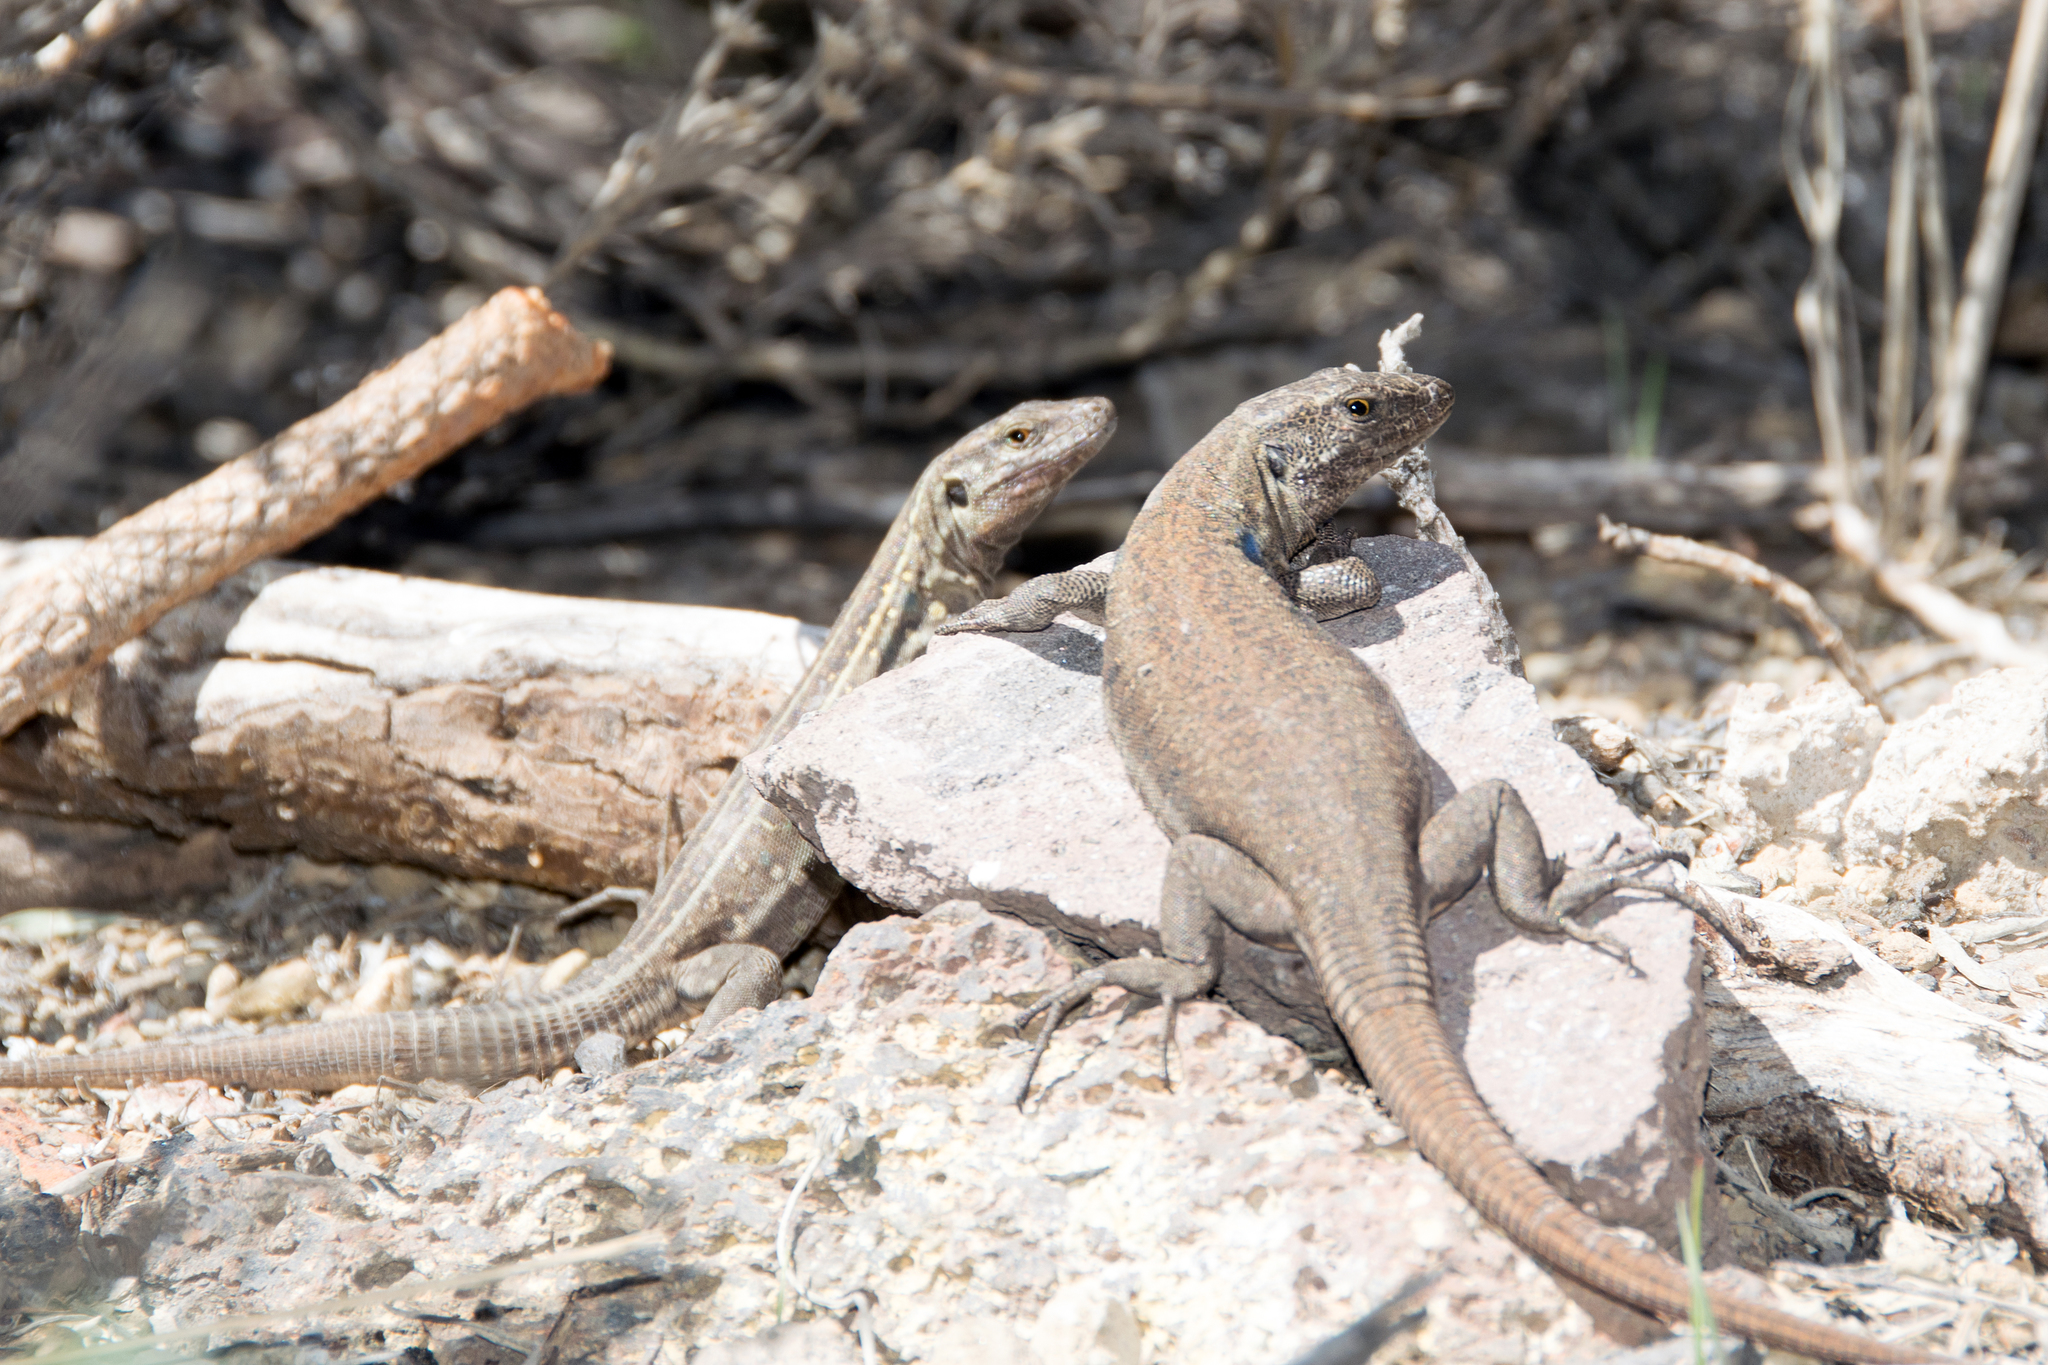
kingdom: Animalia
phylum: Chordata
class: Squamata
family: Lacertidae
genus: Gallotia
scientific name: Gallotia galloti
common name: Gallot's lizard
